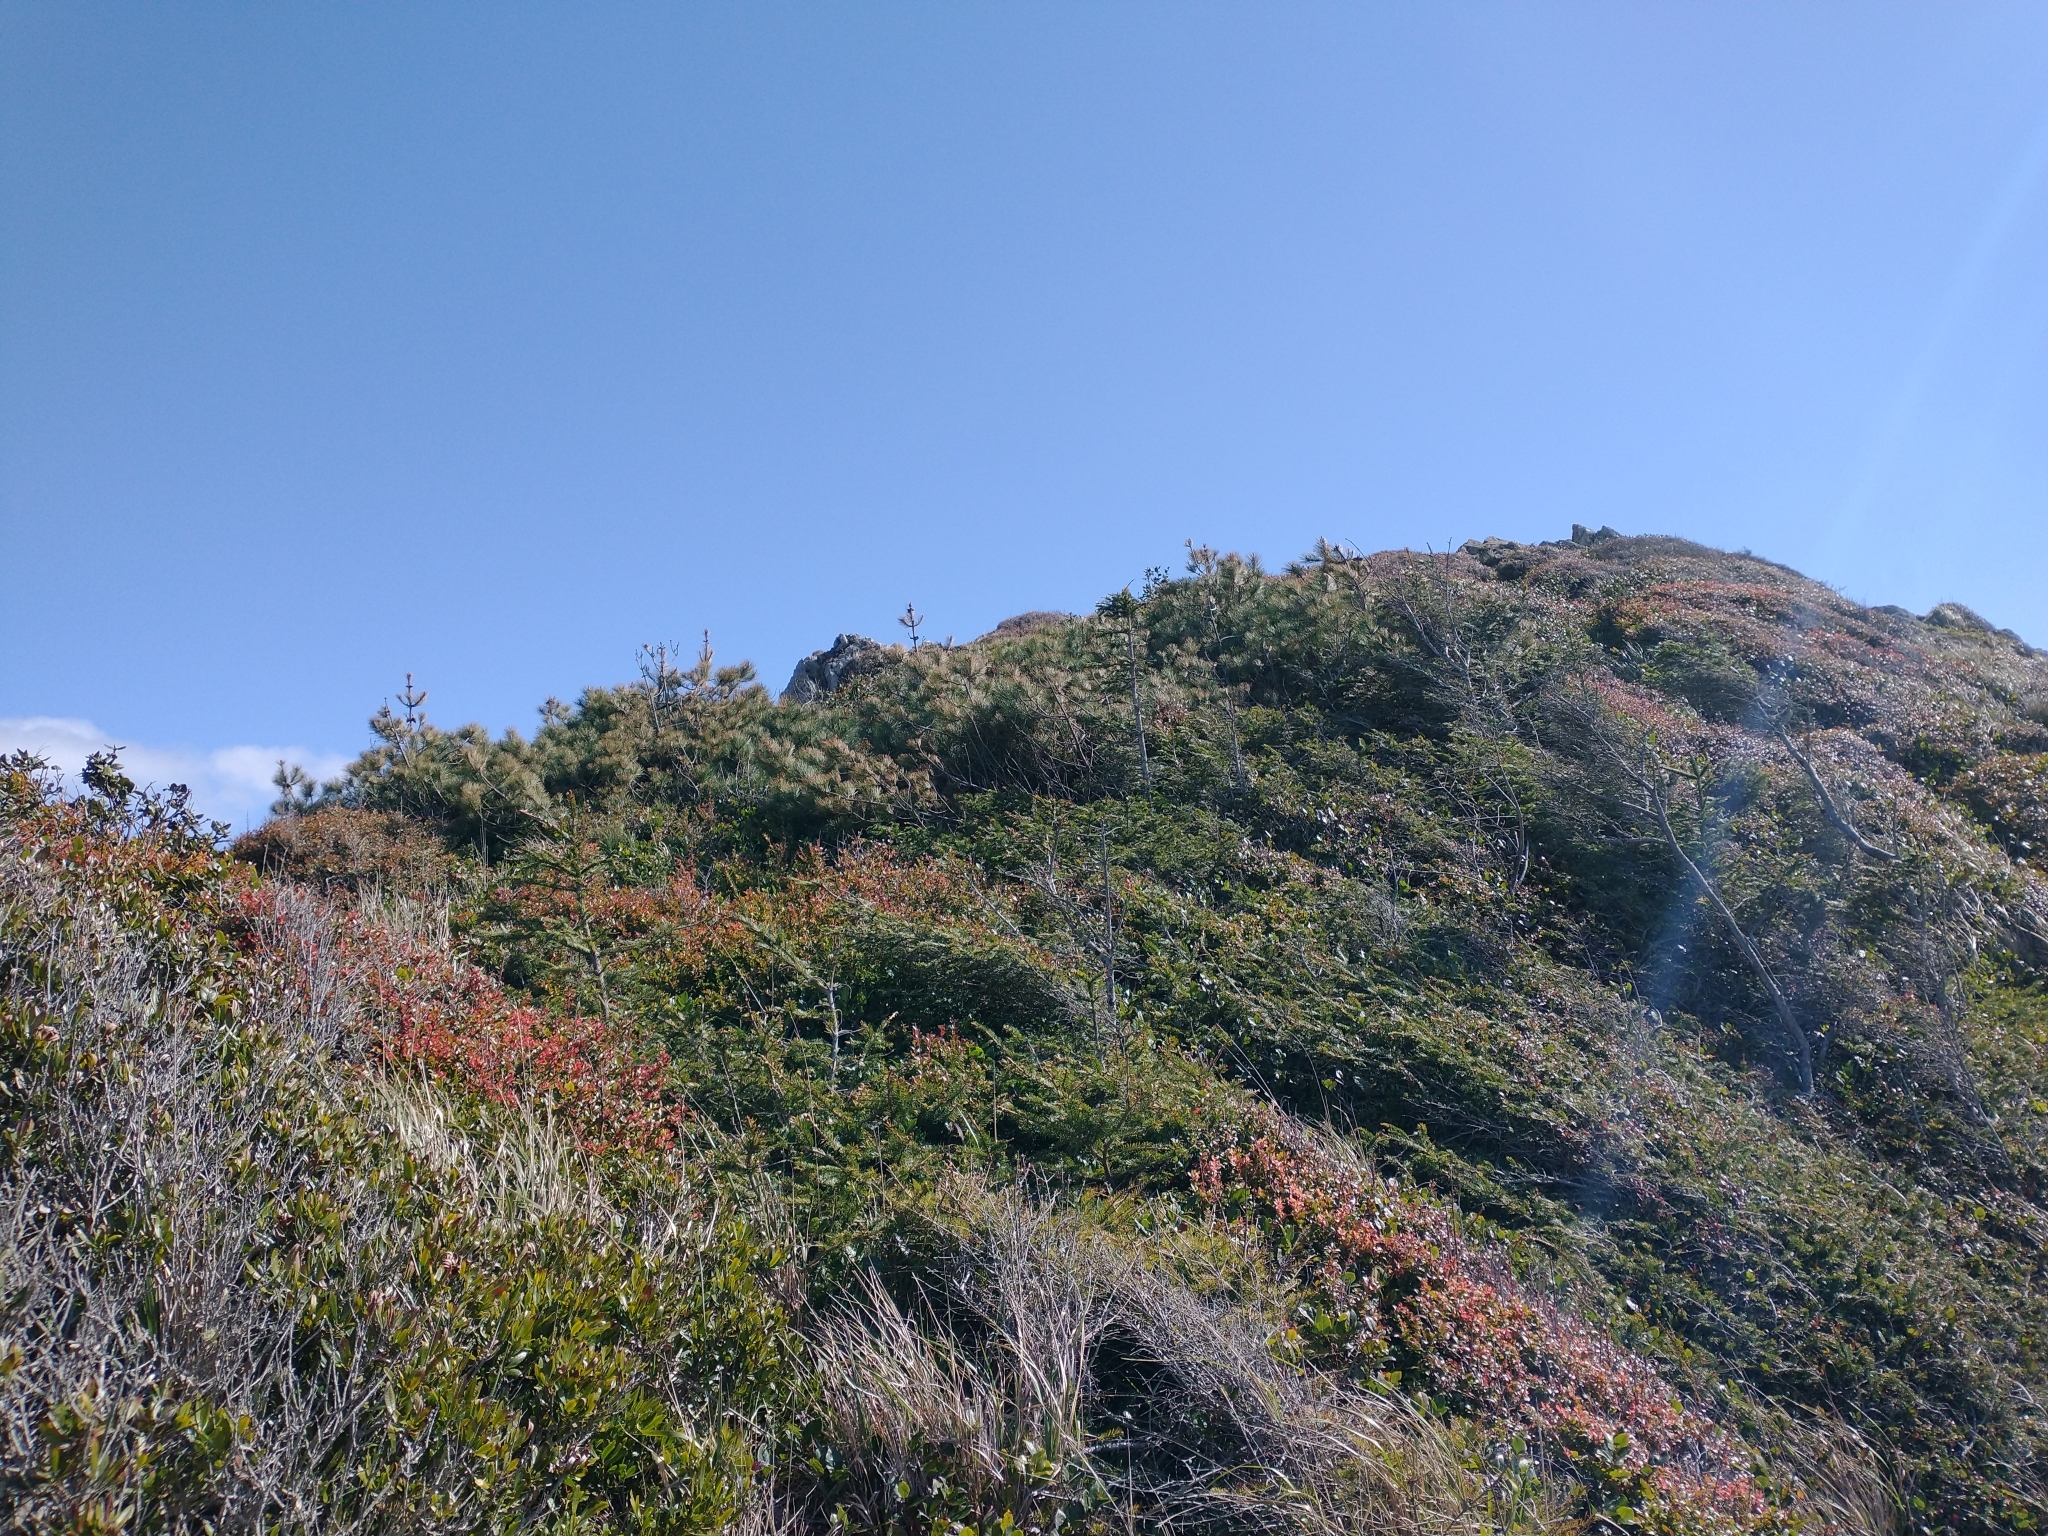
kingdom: Plantae
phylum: Tracheophyta
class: Pinopsida
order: Pinales
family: Pinaceae
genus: Pinus
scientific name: Pinus muricata
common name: Bishop pine
